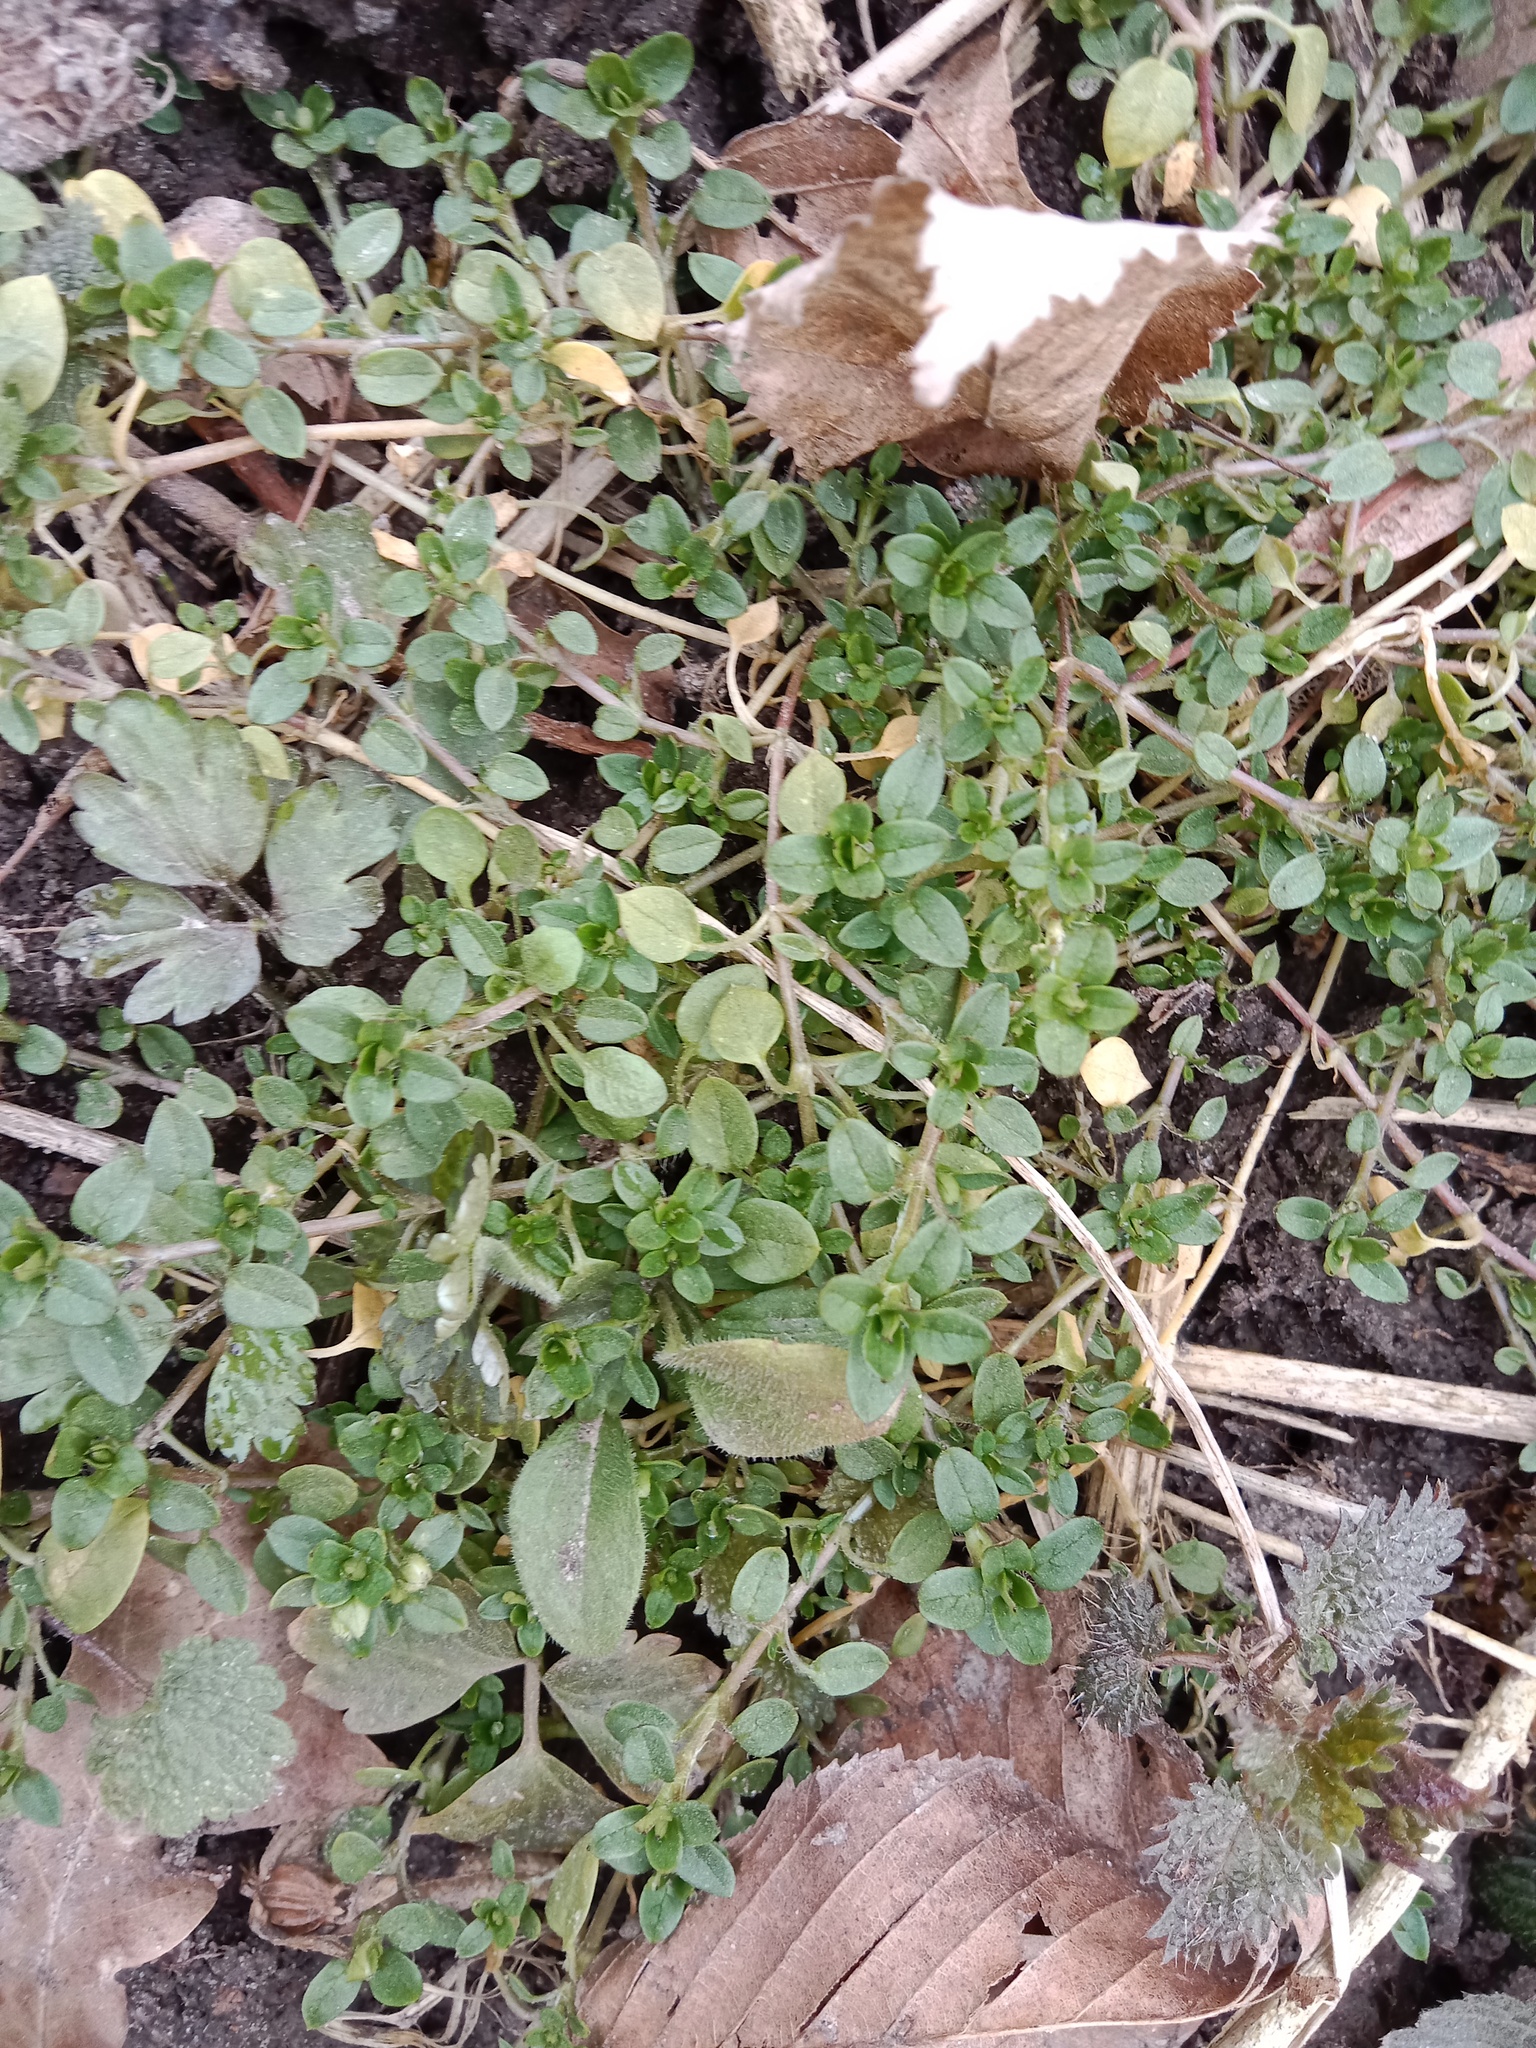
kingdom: Plantae
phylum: Tracheophyta
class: Magnoliopsida
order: Caryophyllales
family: Caryophyllaceae
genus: Stellaria
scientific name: Stellaria media
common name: Common chickweed
